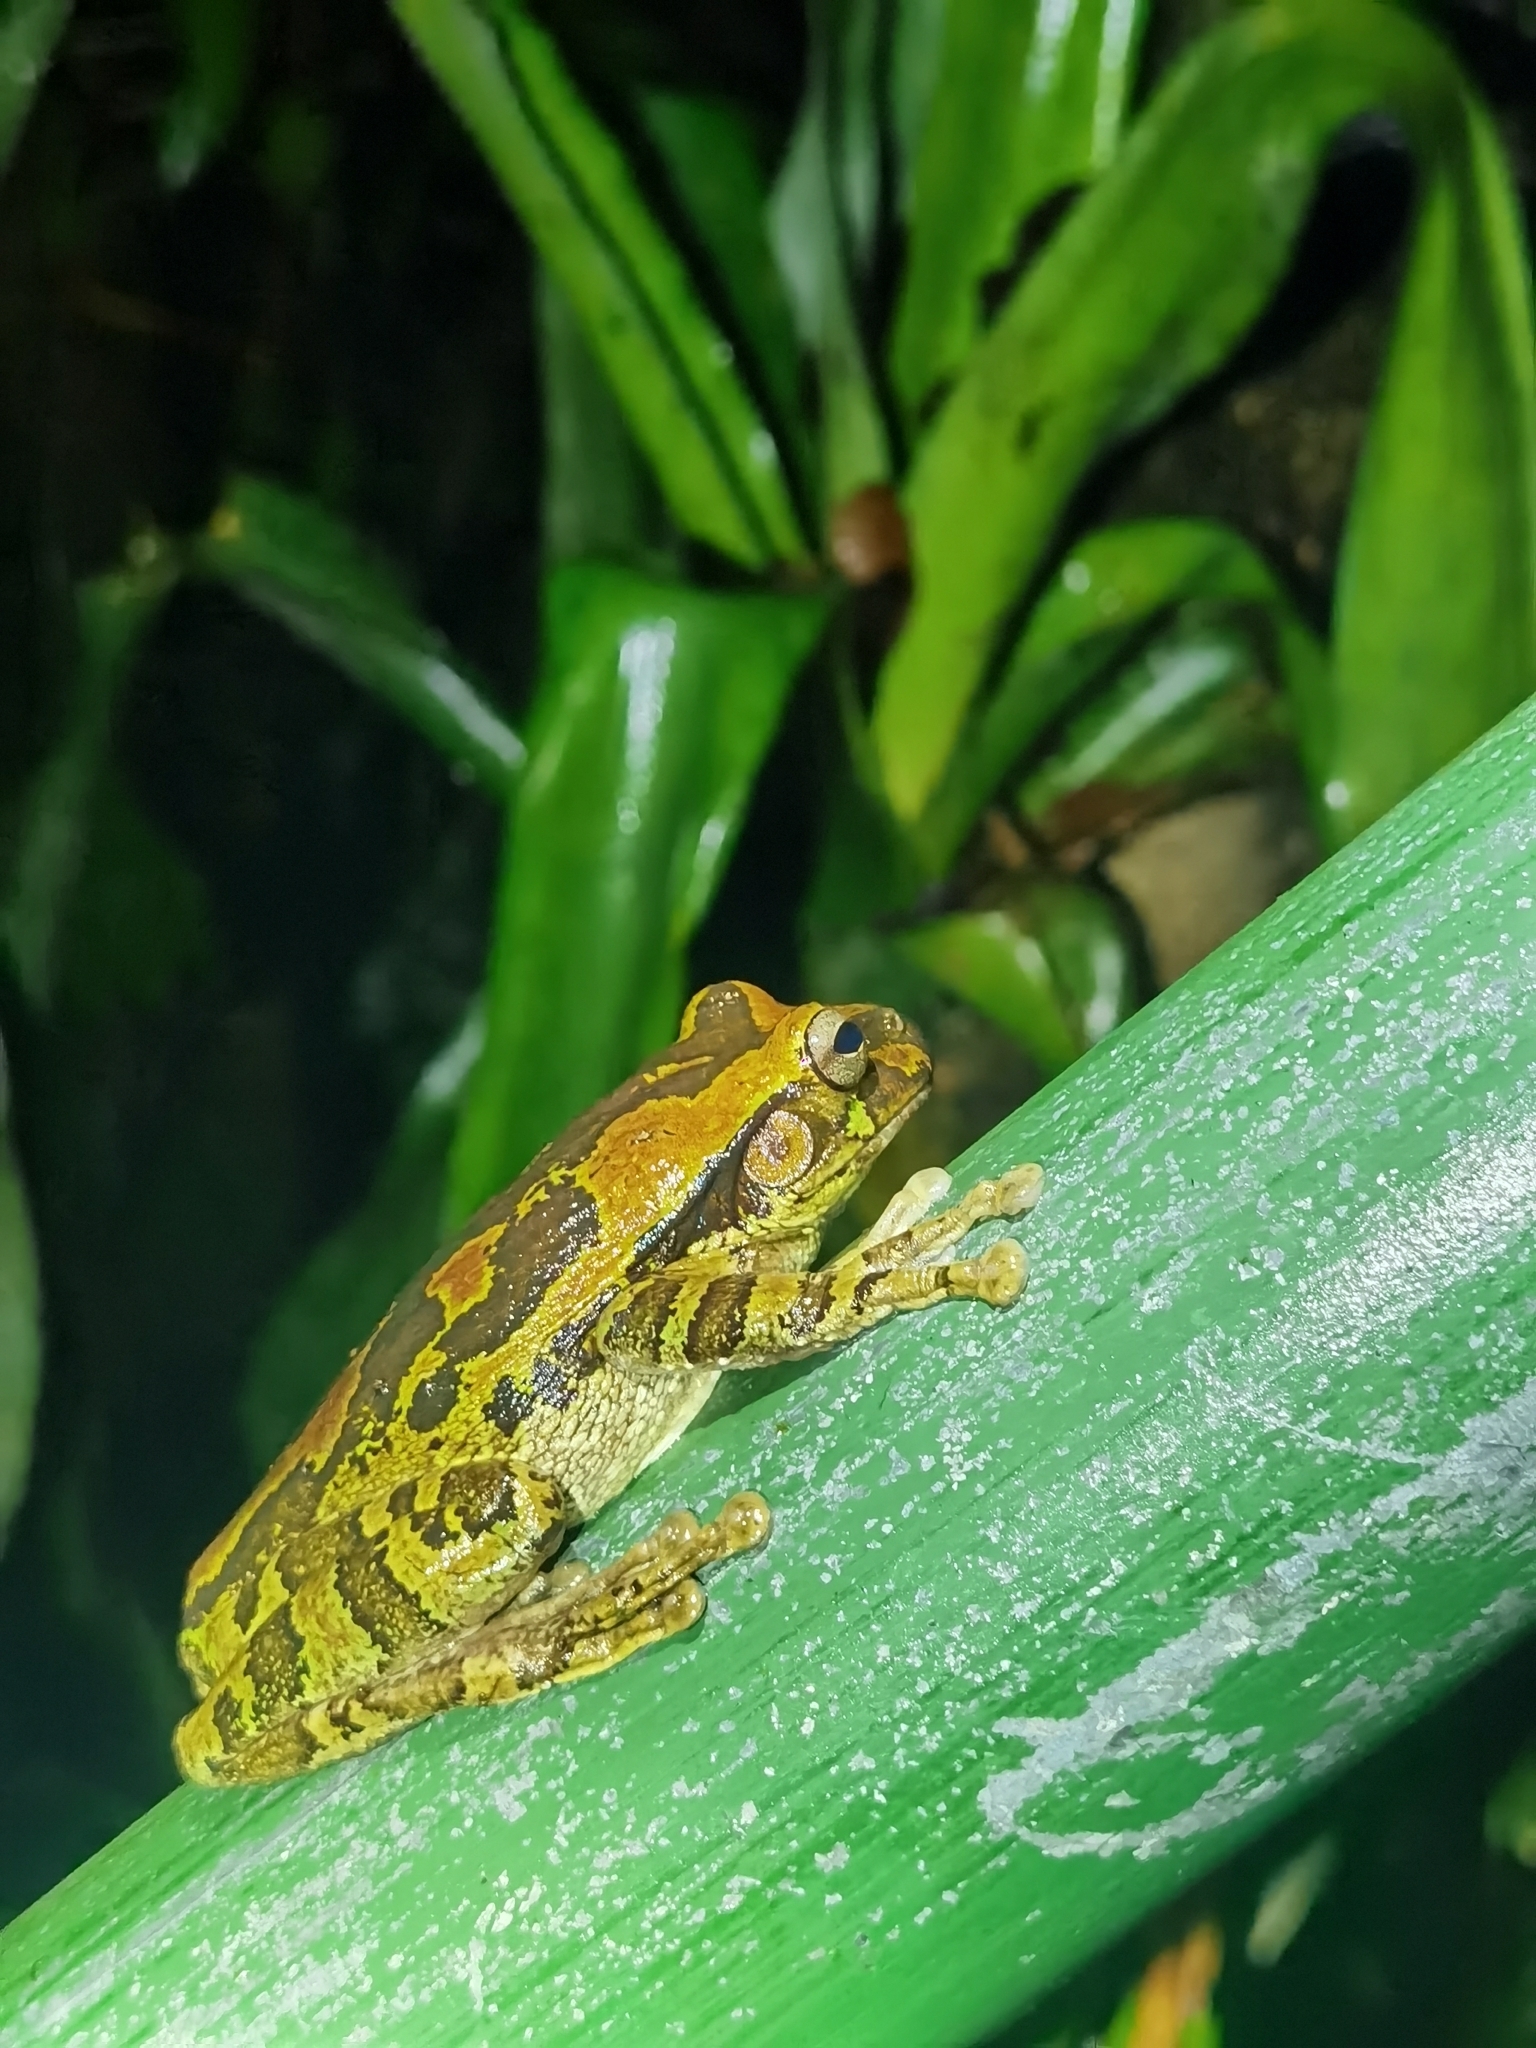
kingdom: Animalia
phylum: Chordata
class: Amphibia
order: Anura
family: Hylidae
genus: Smilisca
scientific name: Smilisca manisorum
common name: Masked tree frog
